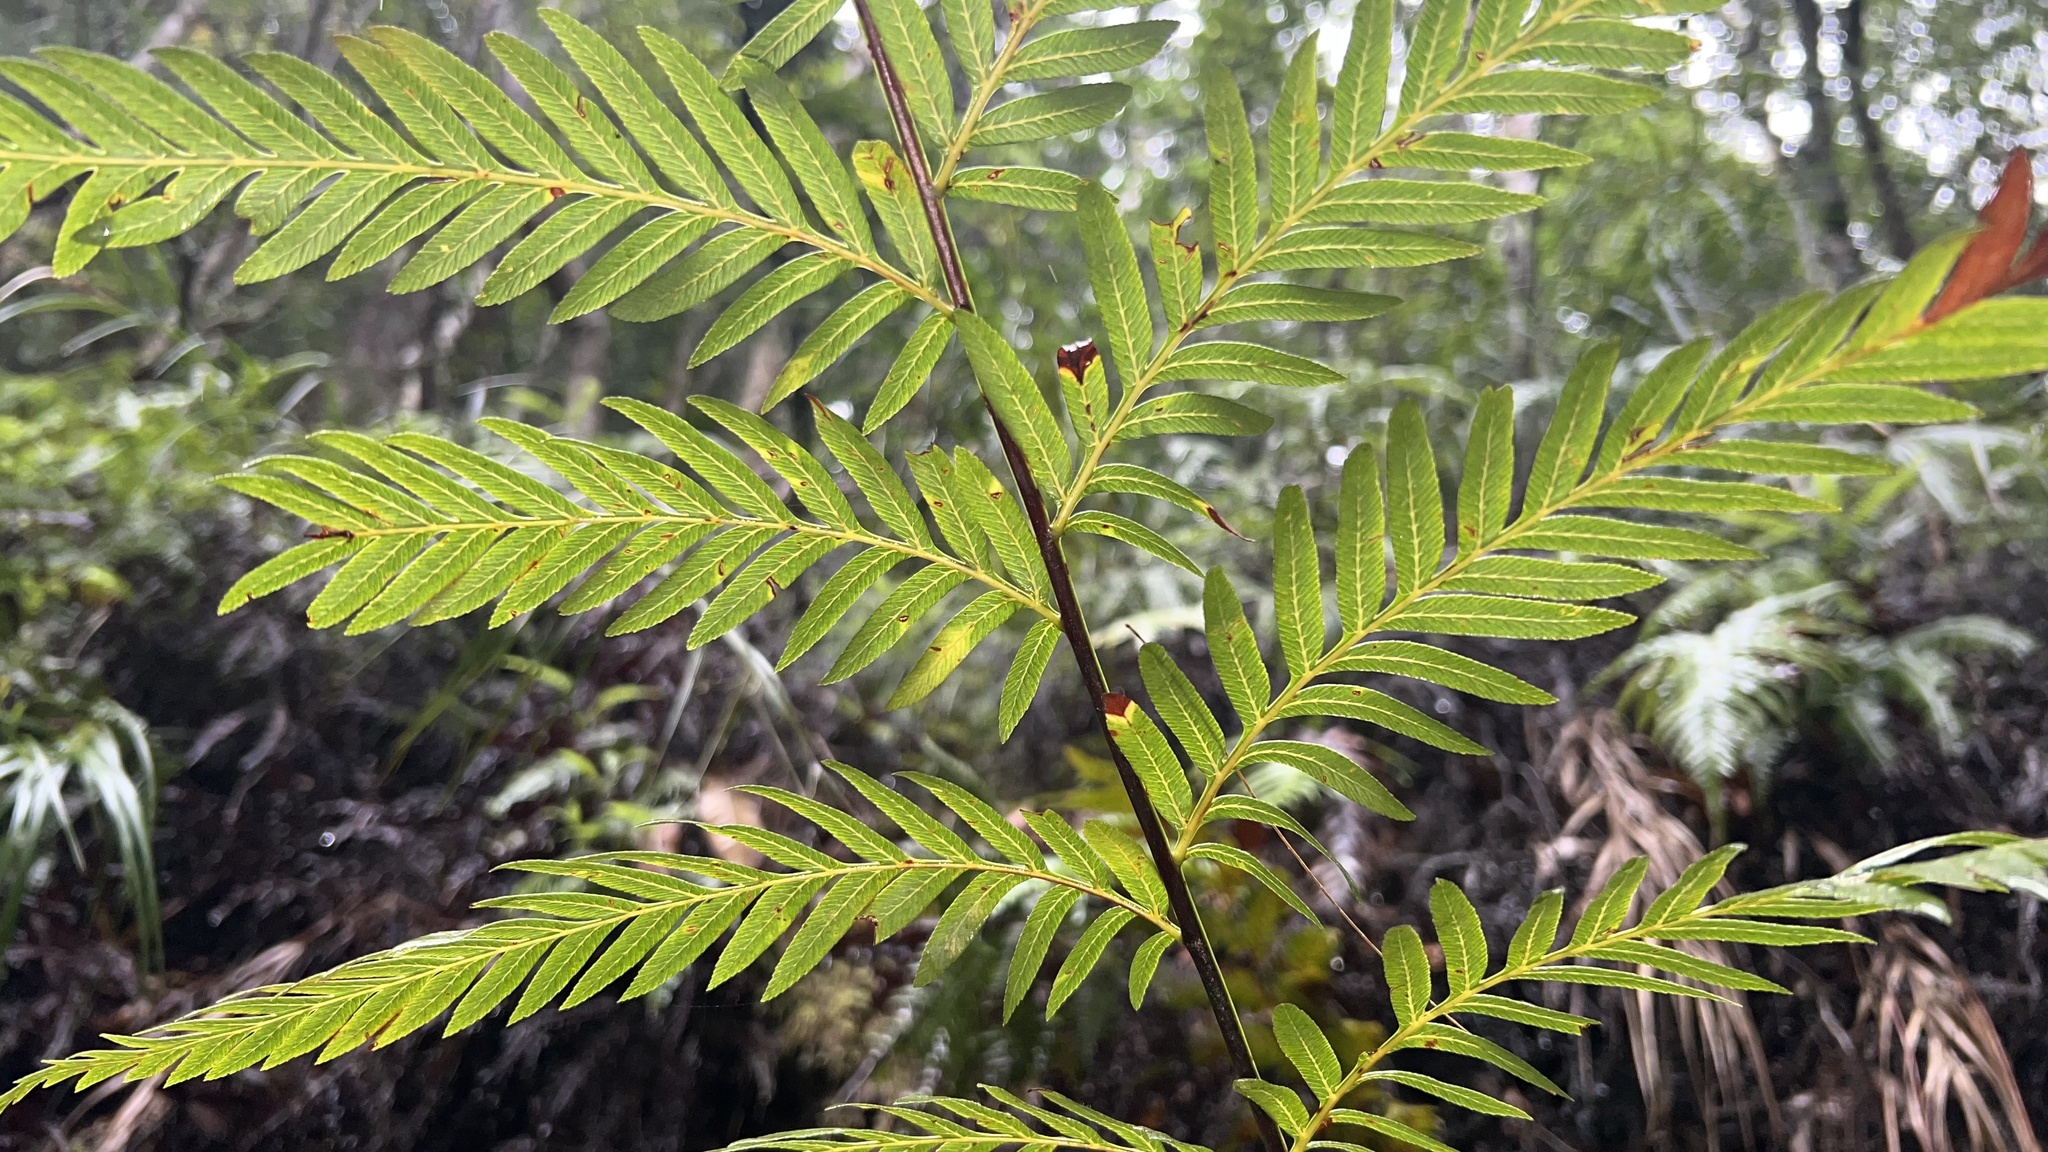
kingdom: Plantae
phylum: Tracheophyta
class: Polypodiopsida
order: Osmundales
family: Osmundaceae
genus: Todea
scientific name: Todea barbara
